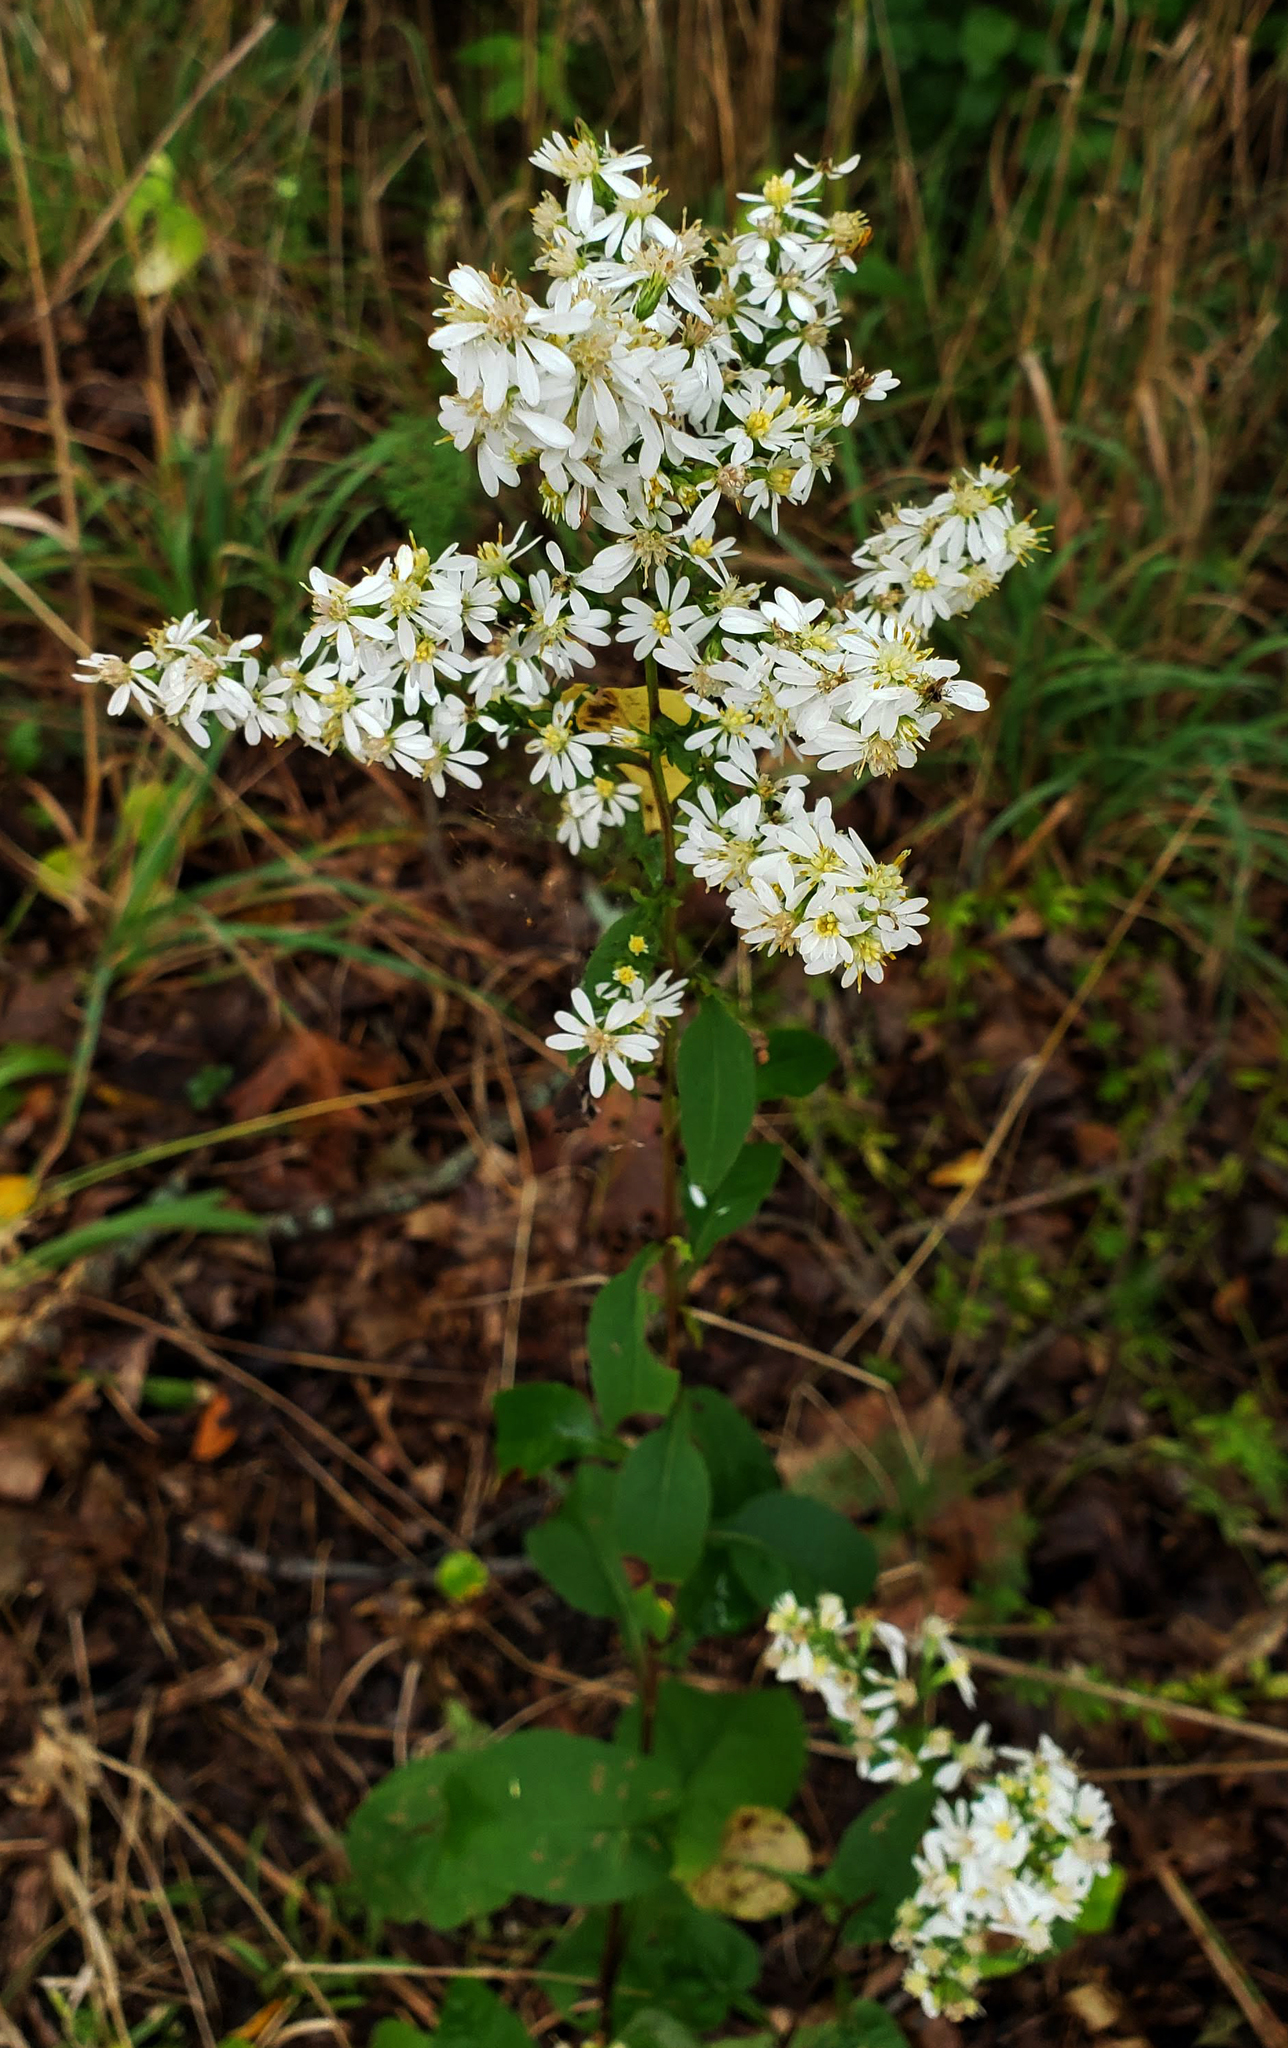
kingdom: Plantae
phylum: Tracheophyta
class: Magnoliopsida
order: Asterales
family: Asteraceae
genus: Symphyotrichum
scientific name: Symphyotrichum urophyllum
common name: Arrow-leaved aster
